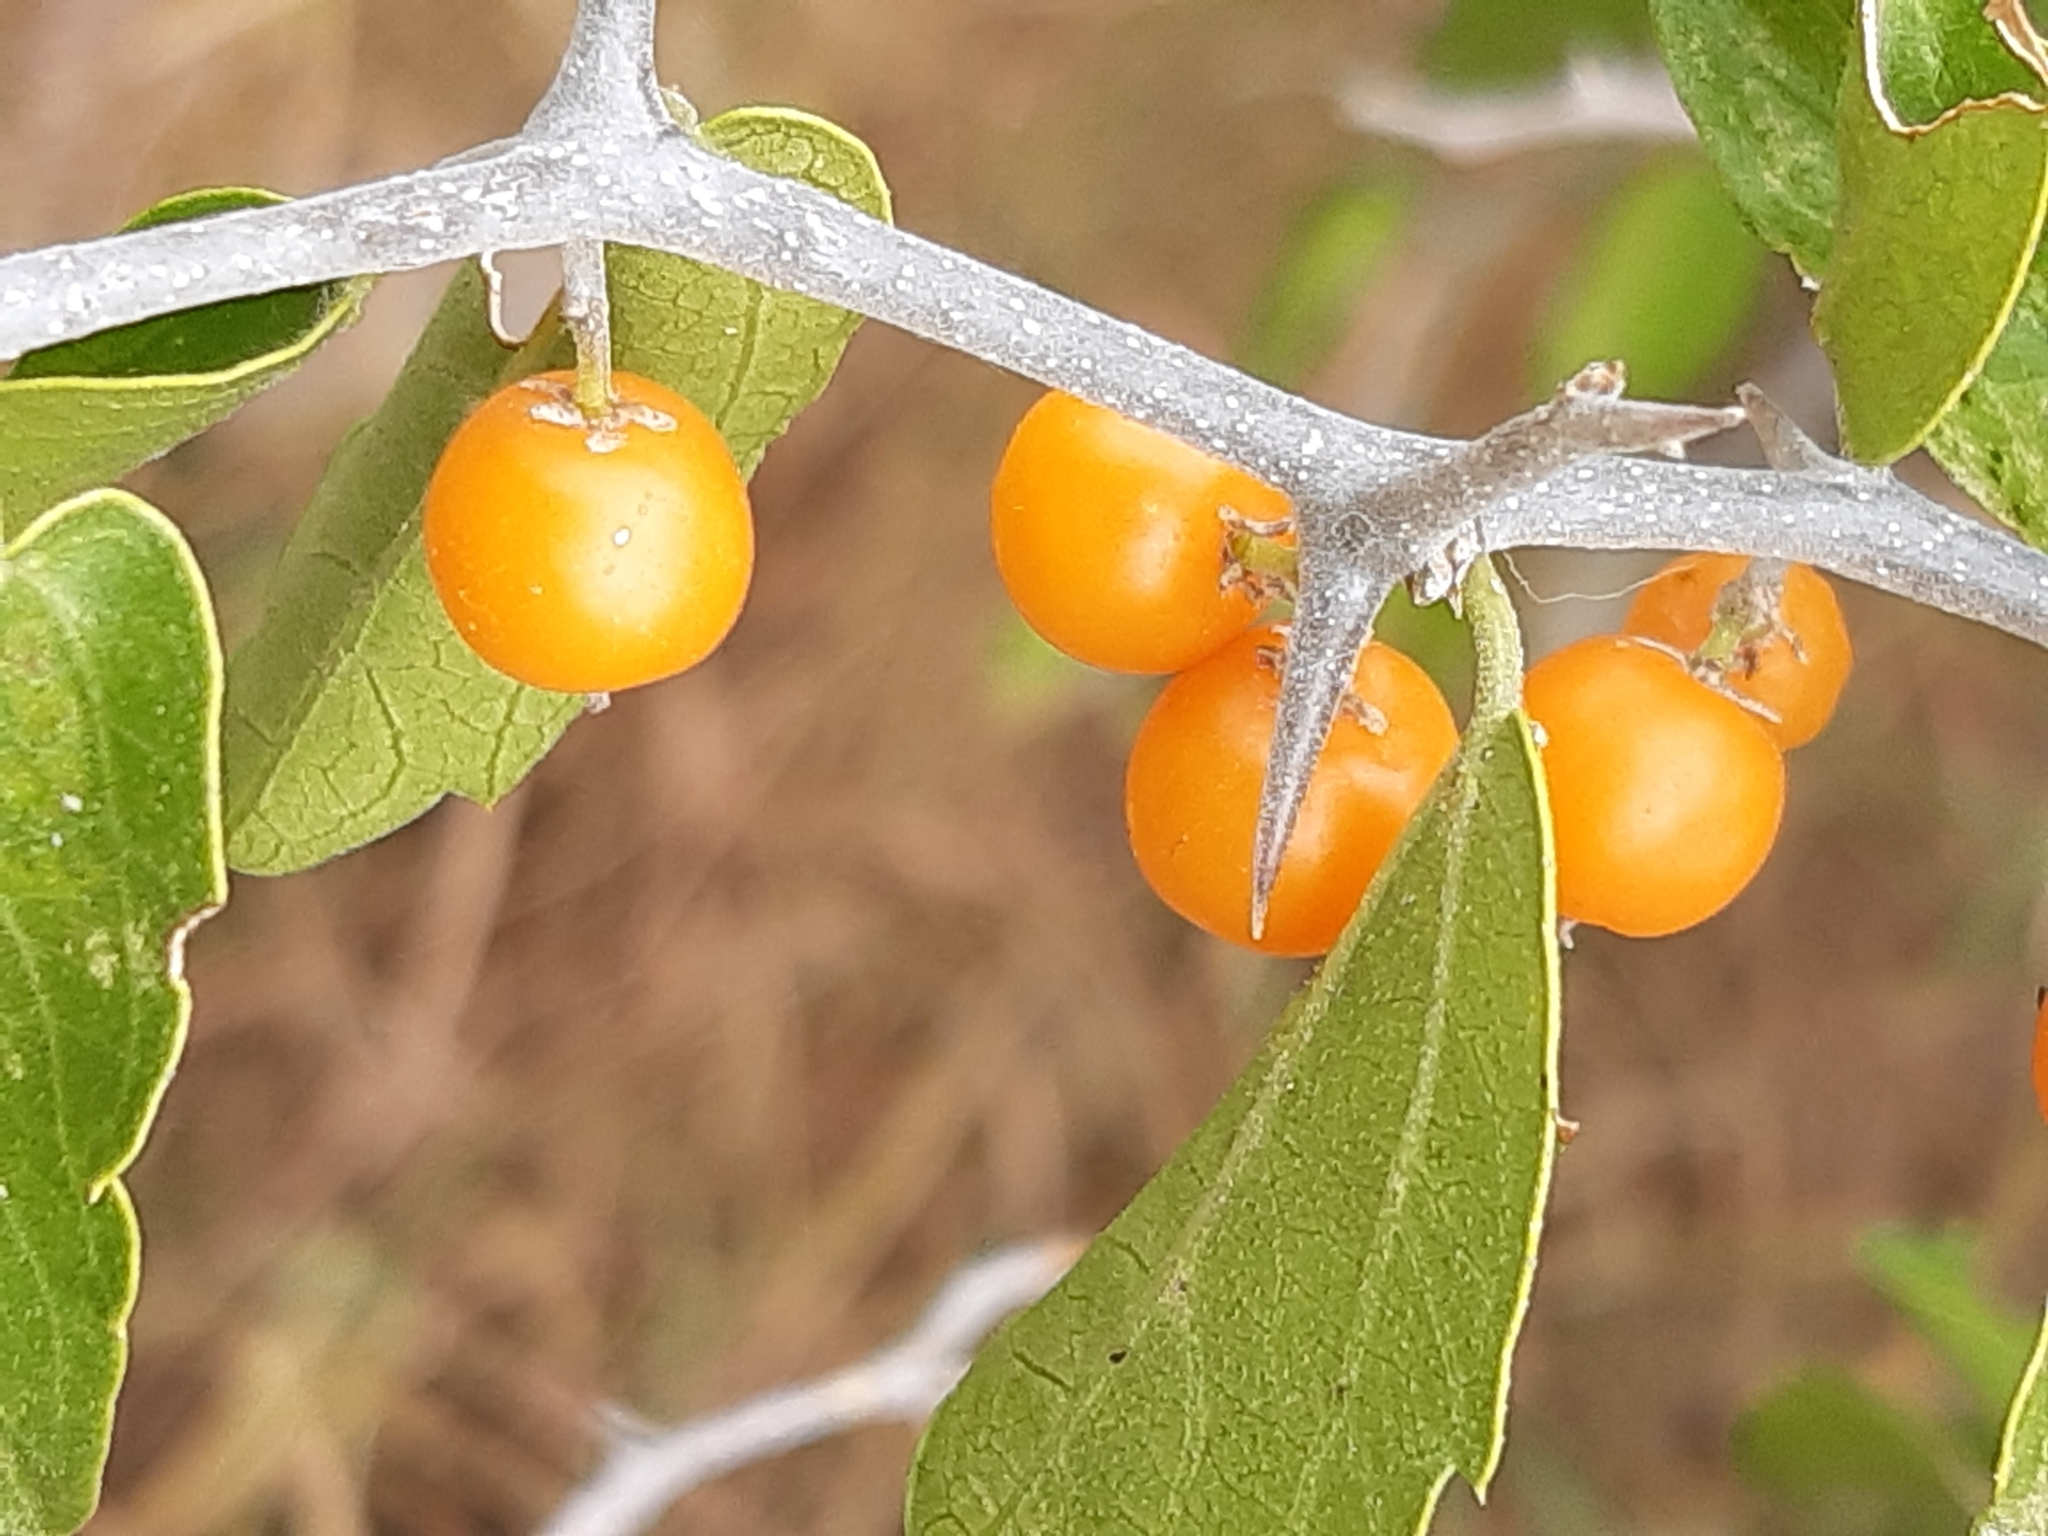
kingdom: Plantae
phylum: Tracheophyta
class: Magnoliopsida
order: Rosales
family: Cannabaceae
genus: Celtis
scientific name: Celtis pallida
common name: Desert hackberry
